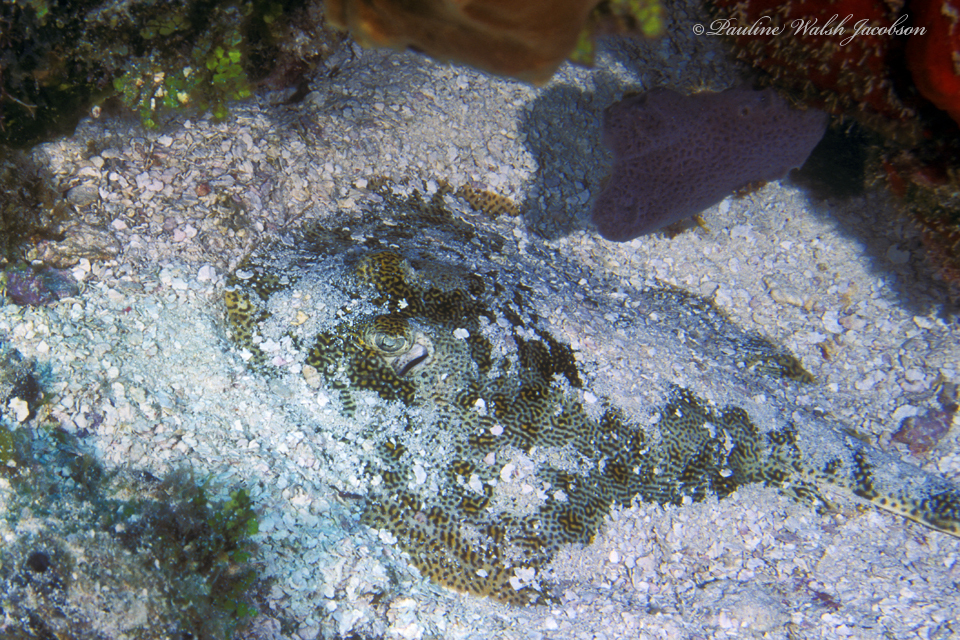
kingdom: Animalia
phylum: Chordata
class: Elasmobranchii
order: Myliobatiformes
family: Urotrygonidae
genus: Urobatis
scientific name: Urobatis jamaicensis
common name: Yellow stingray
